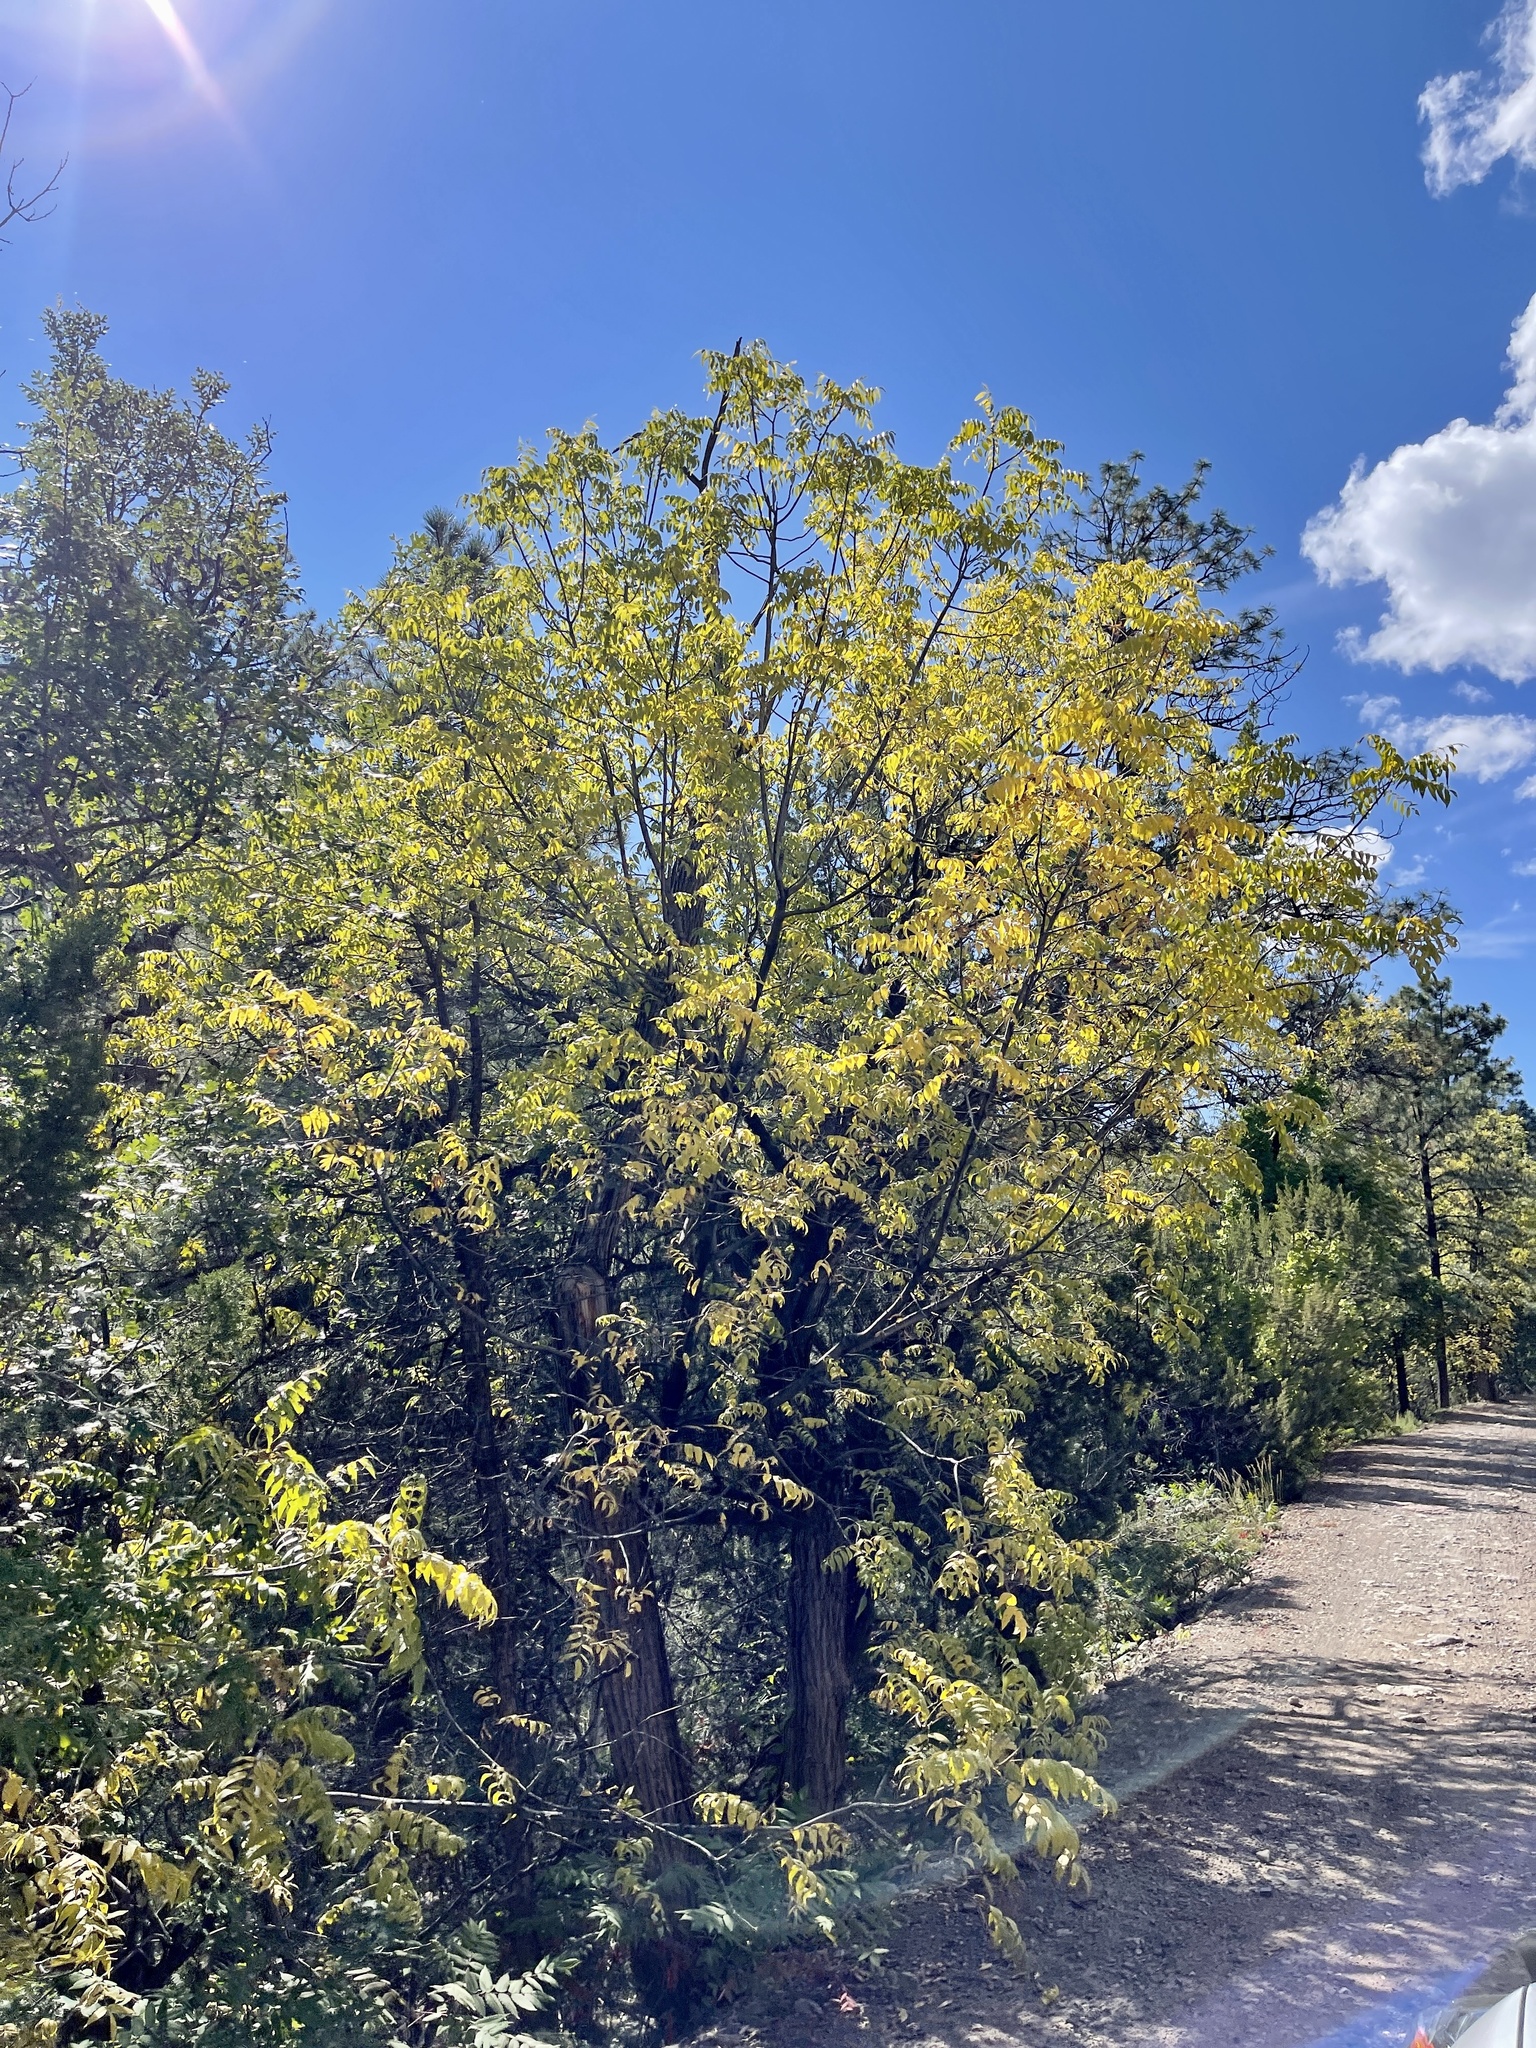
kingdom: Plantae
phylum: Tracheophyta
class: Magnoliopsida
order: Fagales
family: Juglandaceae
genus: Juglans
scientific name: Juglans major
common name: Arizona walnut
